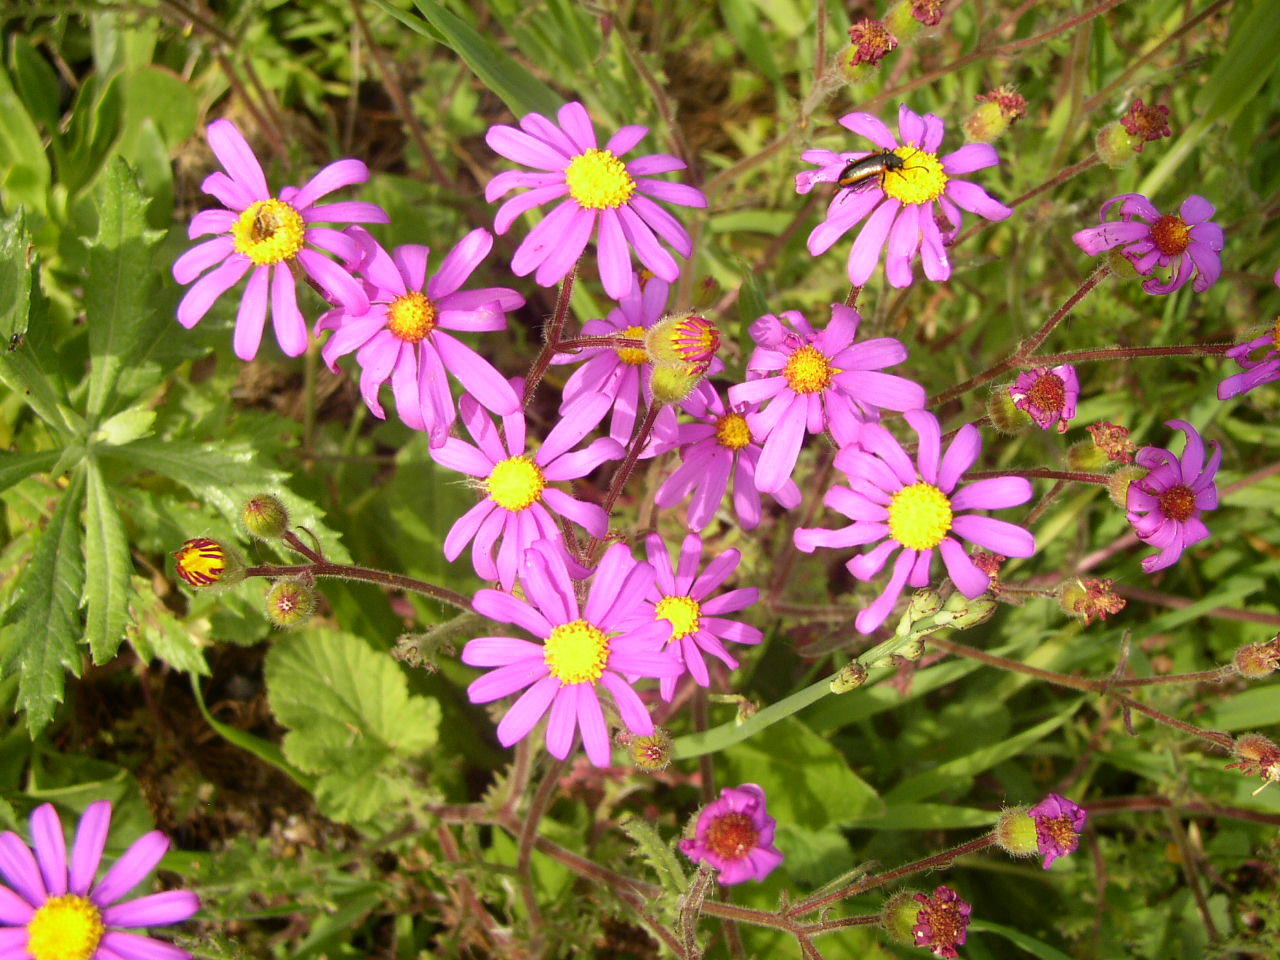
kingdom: Plantae
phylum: Tracheophyta
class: Magnoliopsida
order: Asterales
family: Asteraceae
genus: Senecio
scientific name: Senecio arenarius
